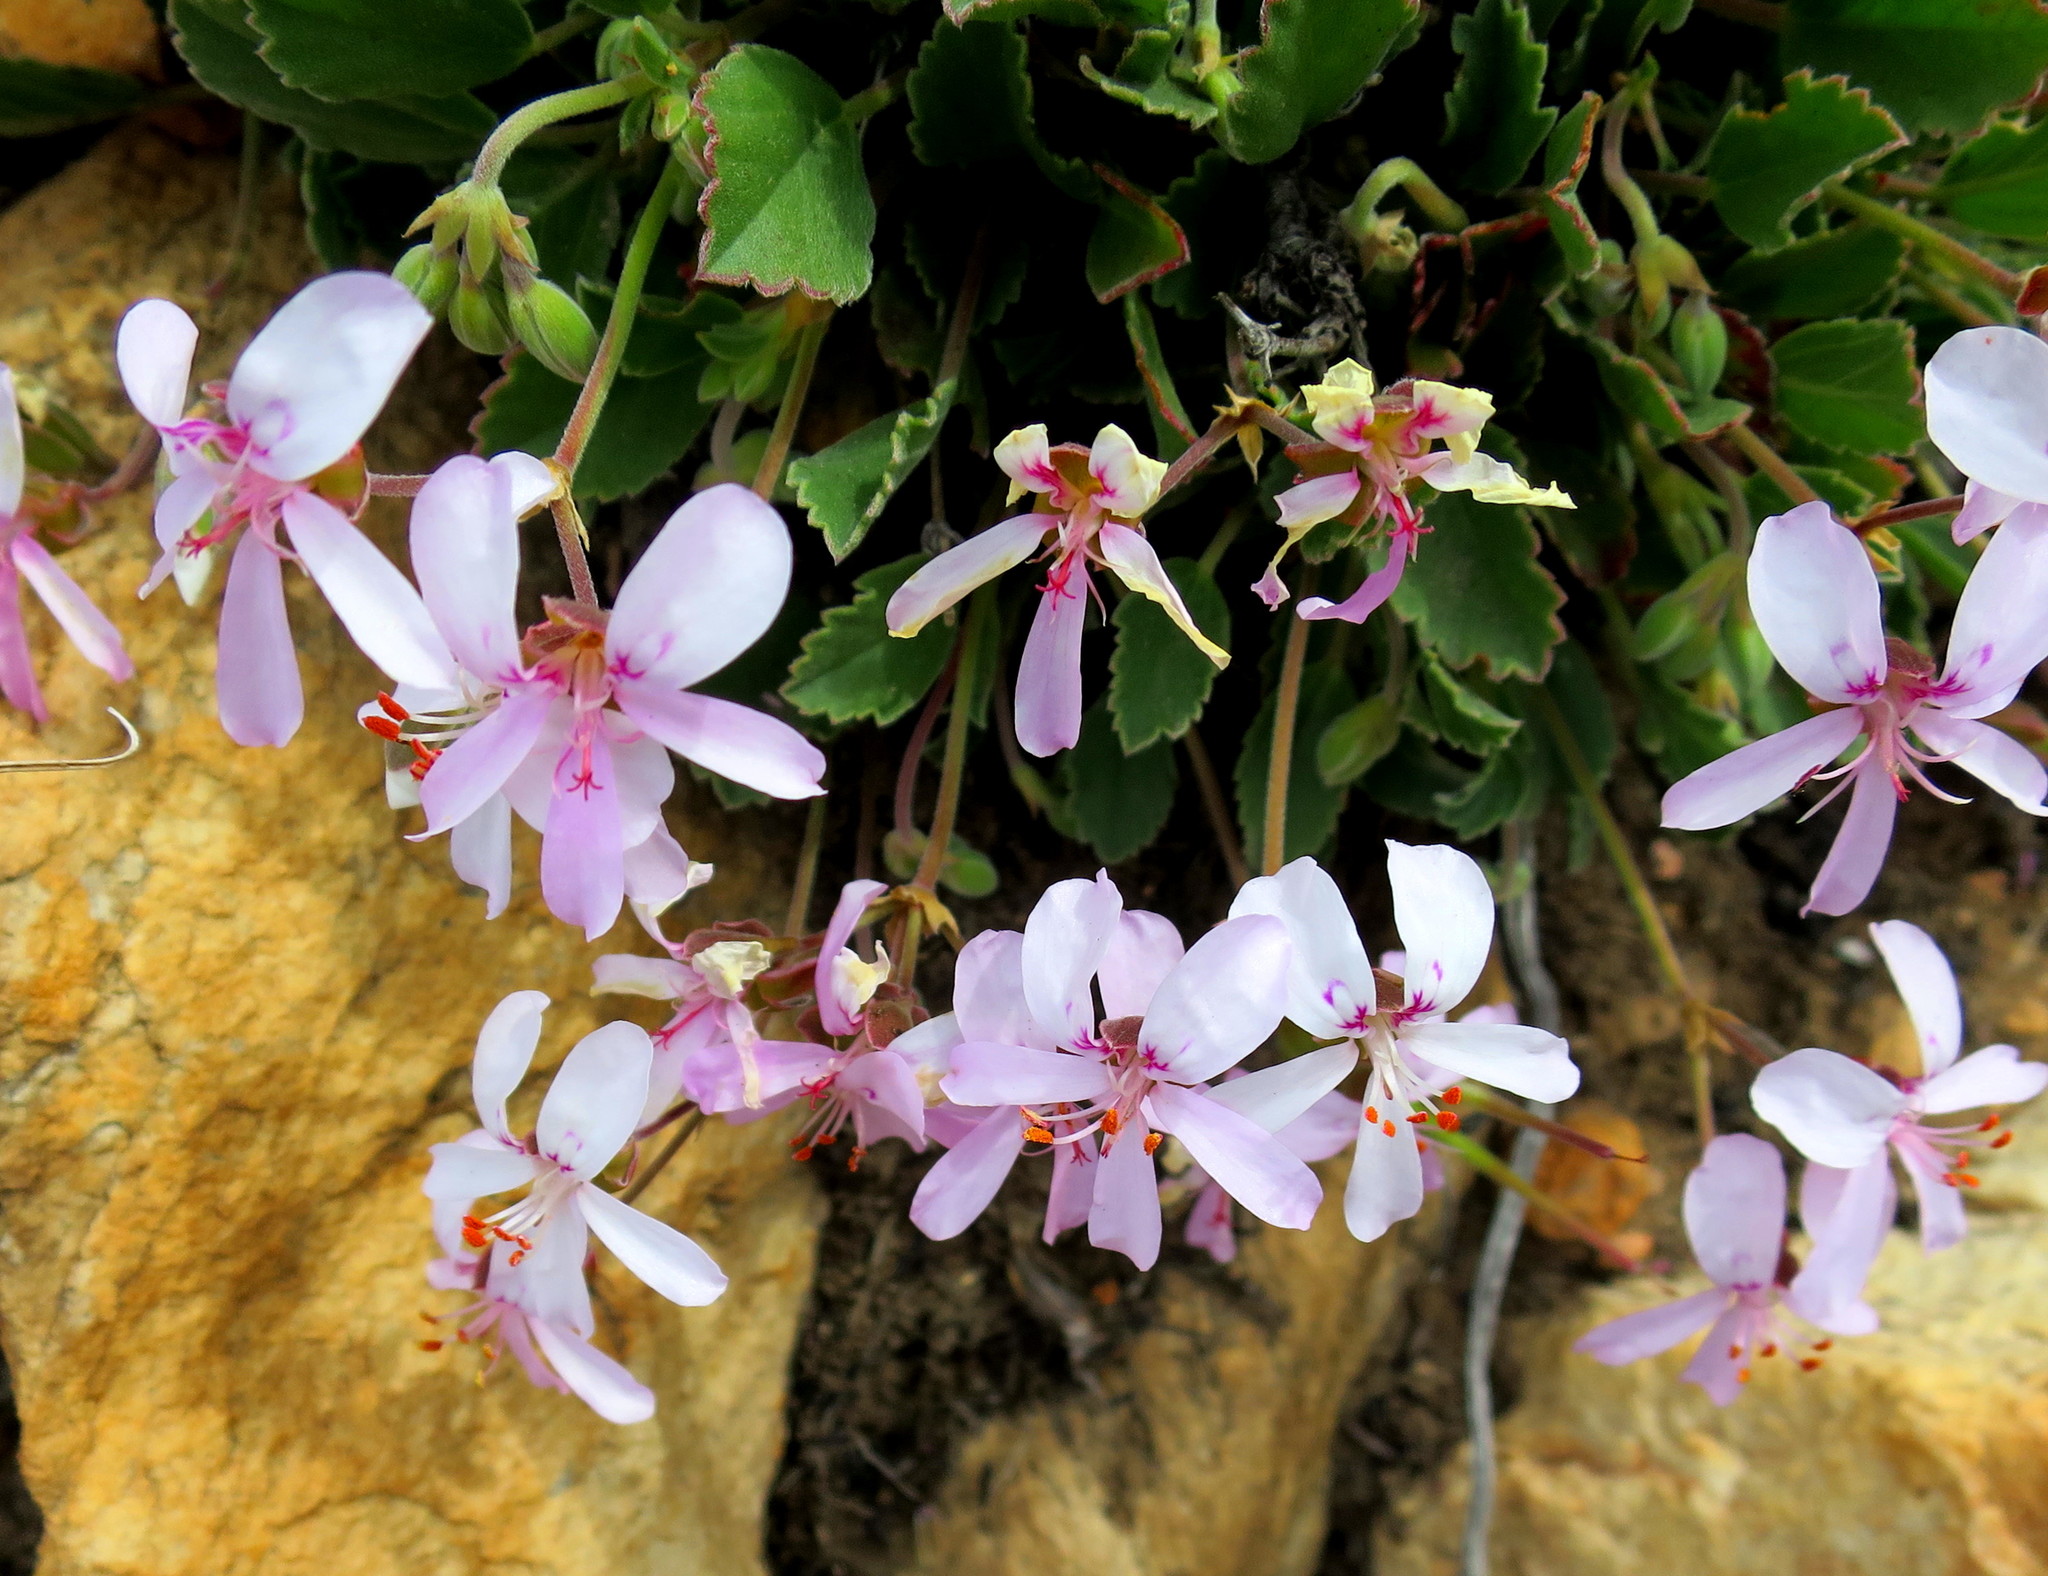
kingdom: Plantae
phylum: Tracheophyta
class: Magnoliopsida
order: Geraniales
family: Geraniaceae
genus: Pelargonium
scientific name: Pelargonium ovale
